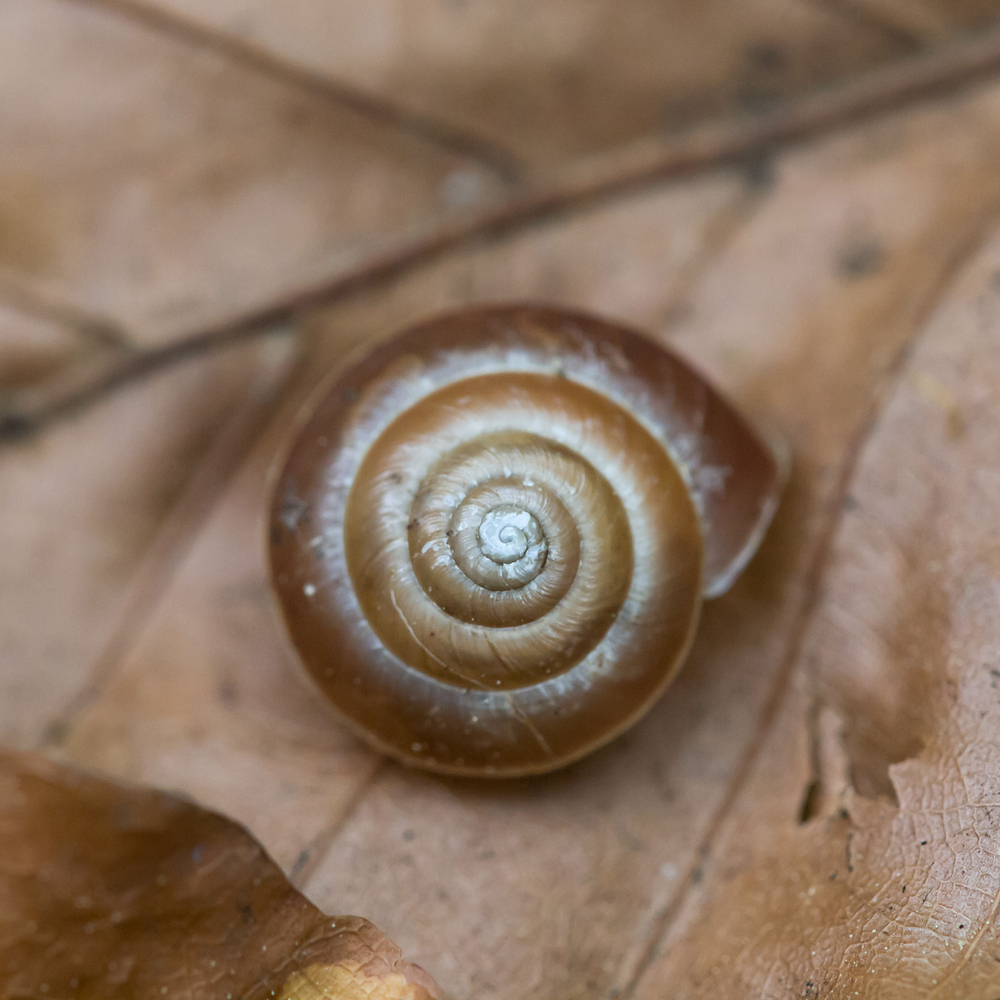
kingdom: Animalia
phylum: Mollusca
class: Gastropoda
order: Stylommatophora
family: Hygromiidae
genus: Hygromia
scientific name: Hygromia limbata
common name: Hedge snail
